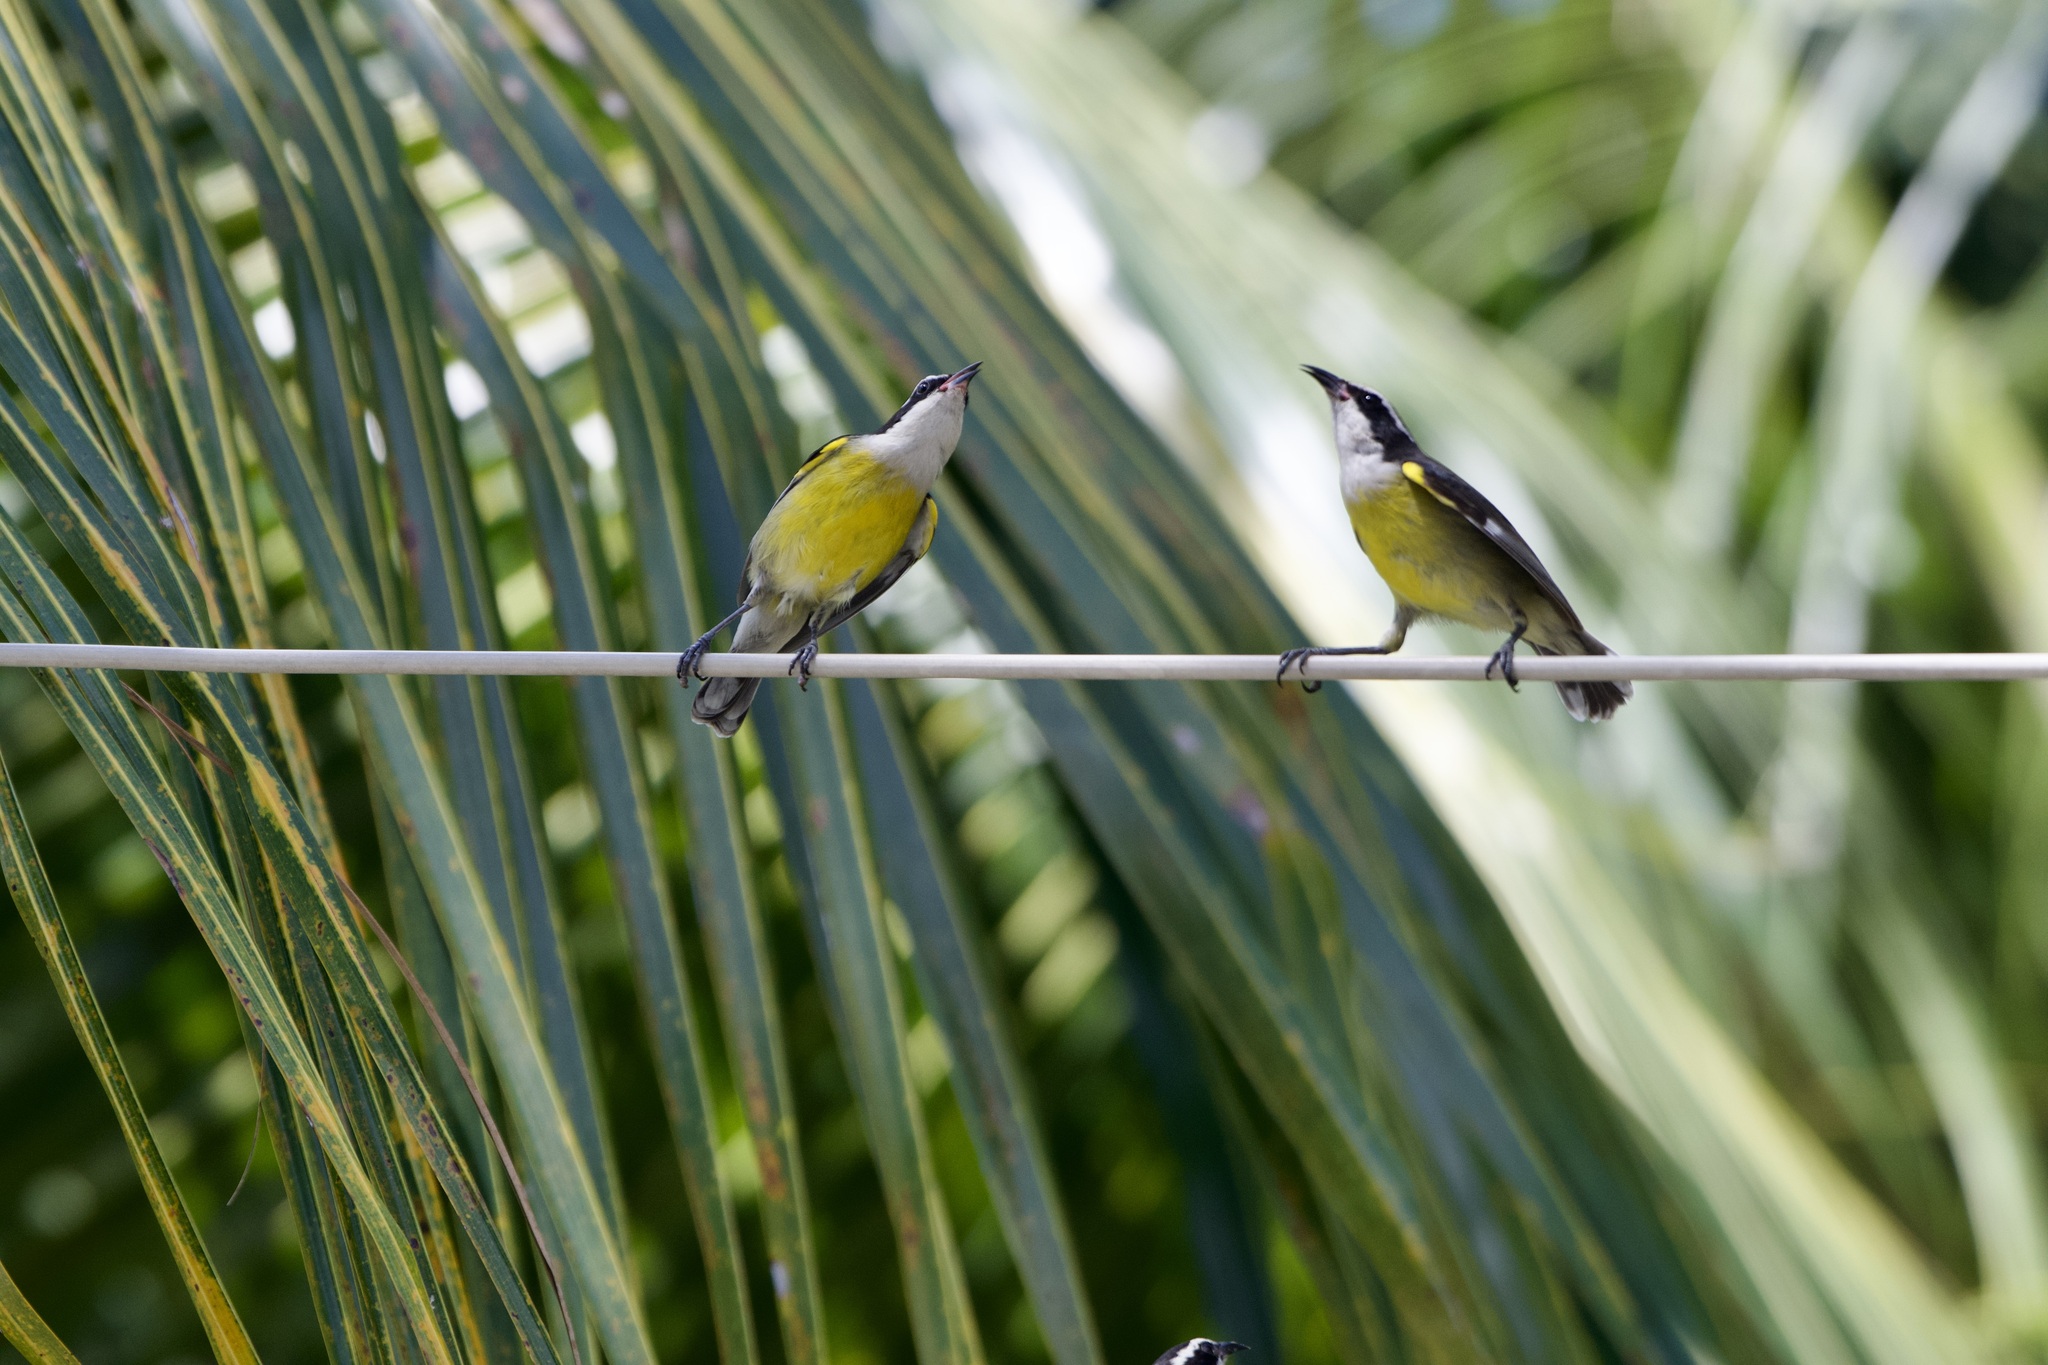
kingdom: Animalia
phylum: Chordata
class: Aves
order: Passeriformes
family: Thraupidae
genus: Coereba
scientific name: Coereba flaveola
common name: Bananaquit
